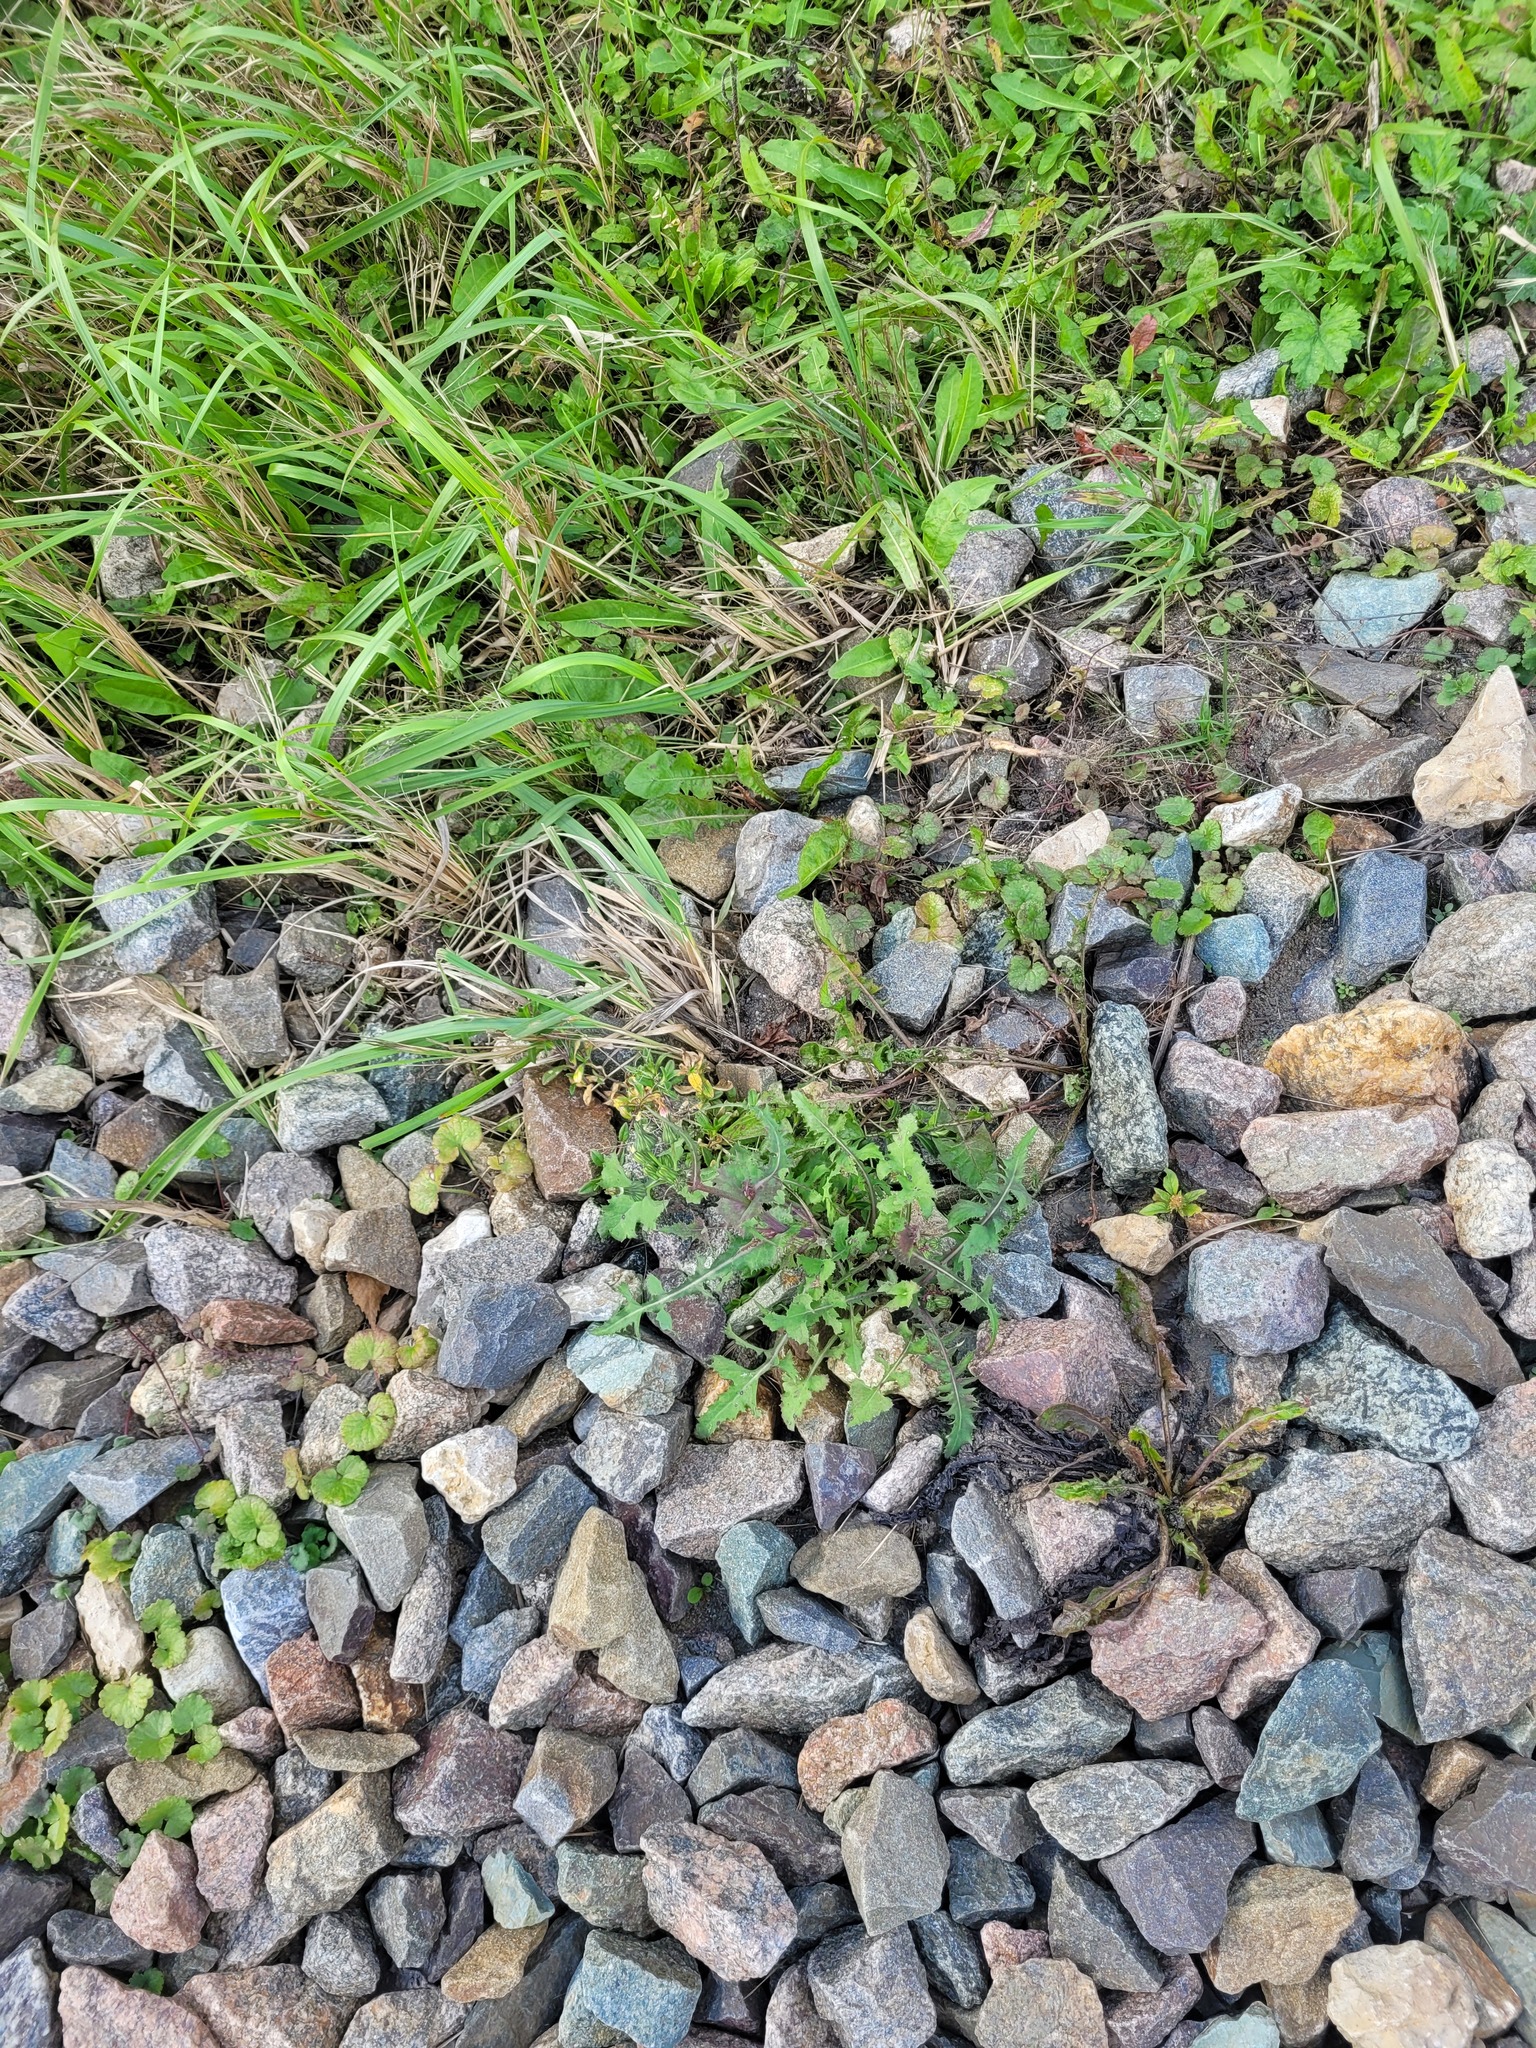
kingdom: Plantae
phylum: Tracheophyta
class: Magnoliopsida
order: Asterales
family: Asteraceae
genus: Sonchus
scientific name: Sonchus oleraceus
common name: Common sowthistle
